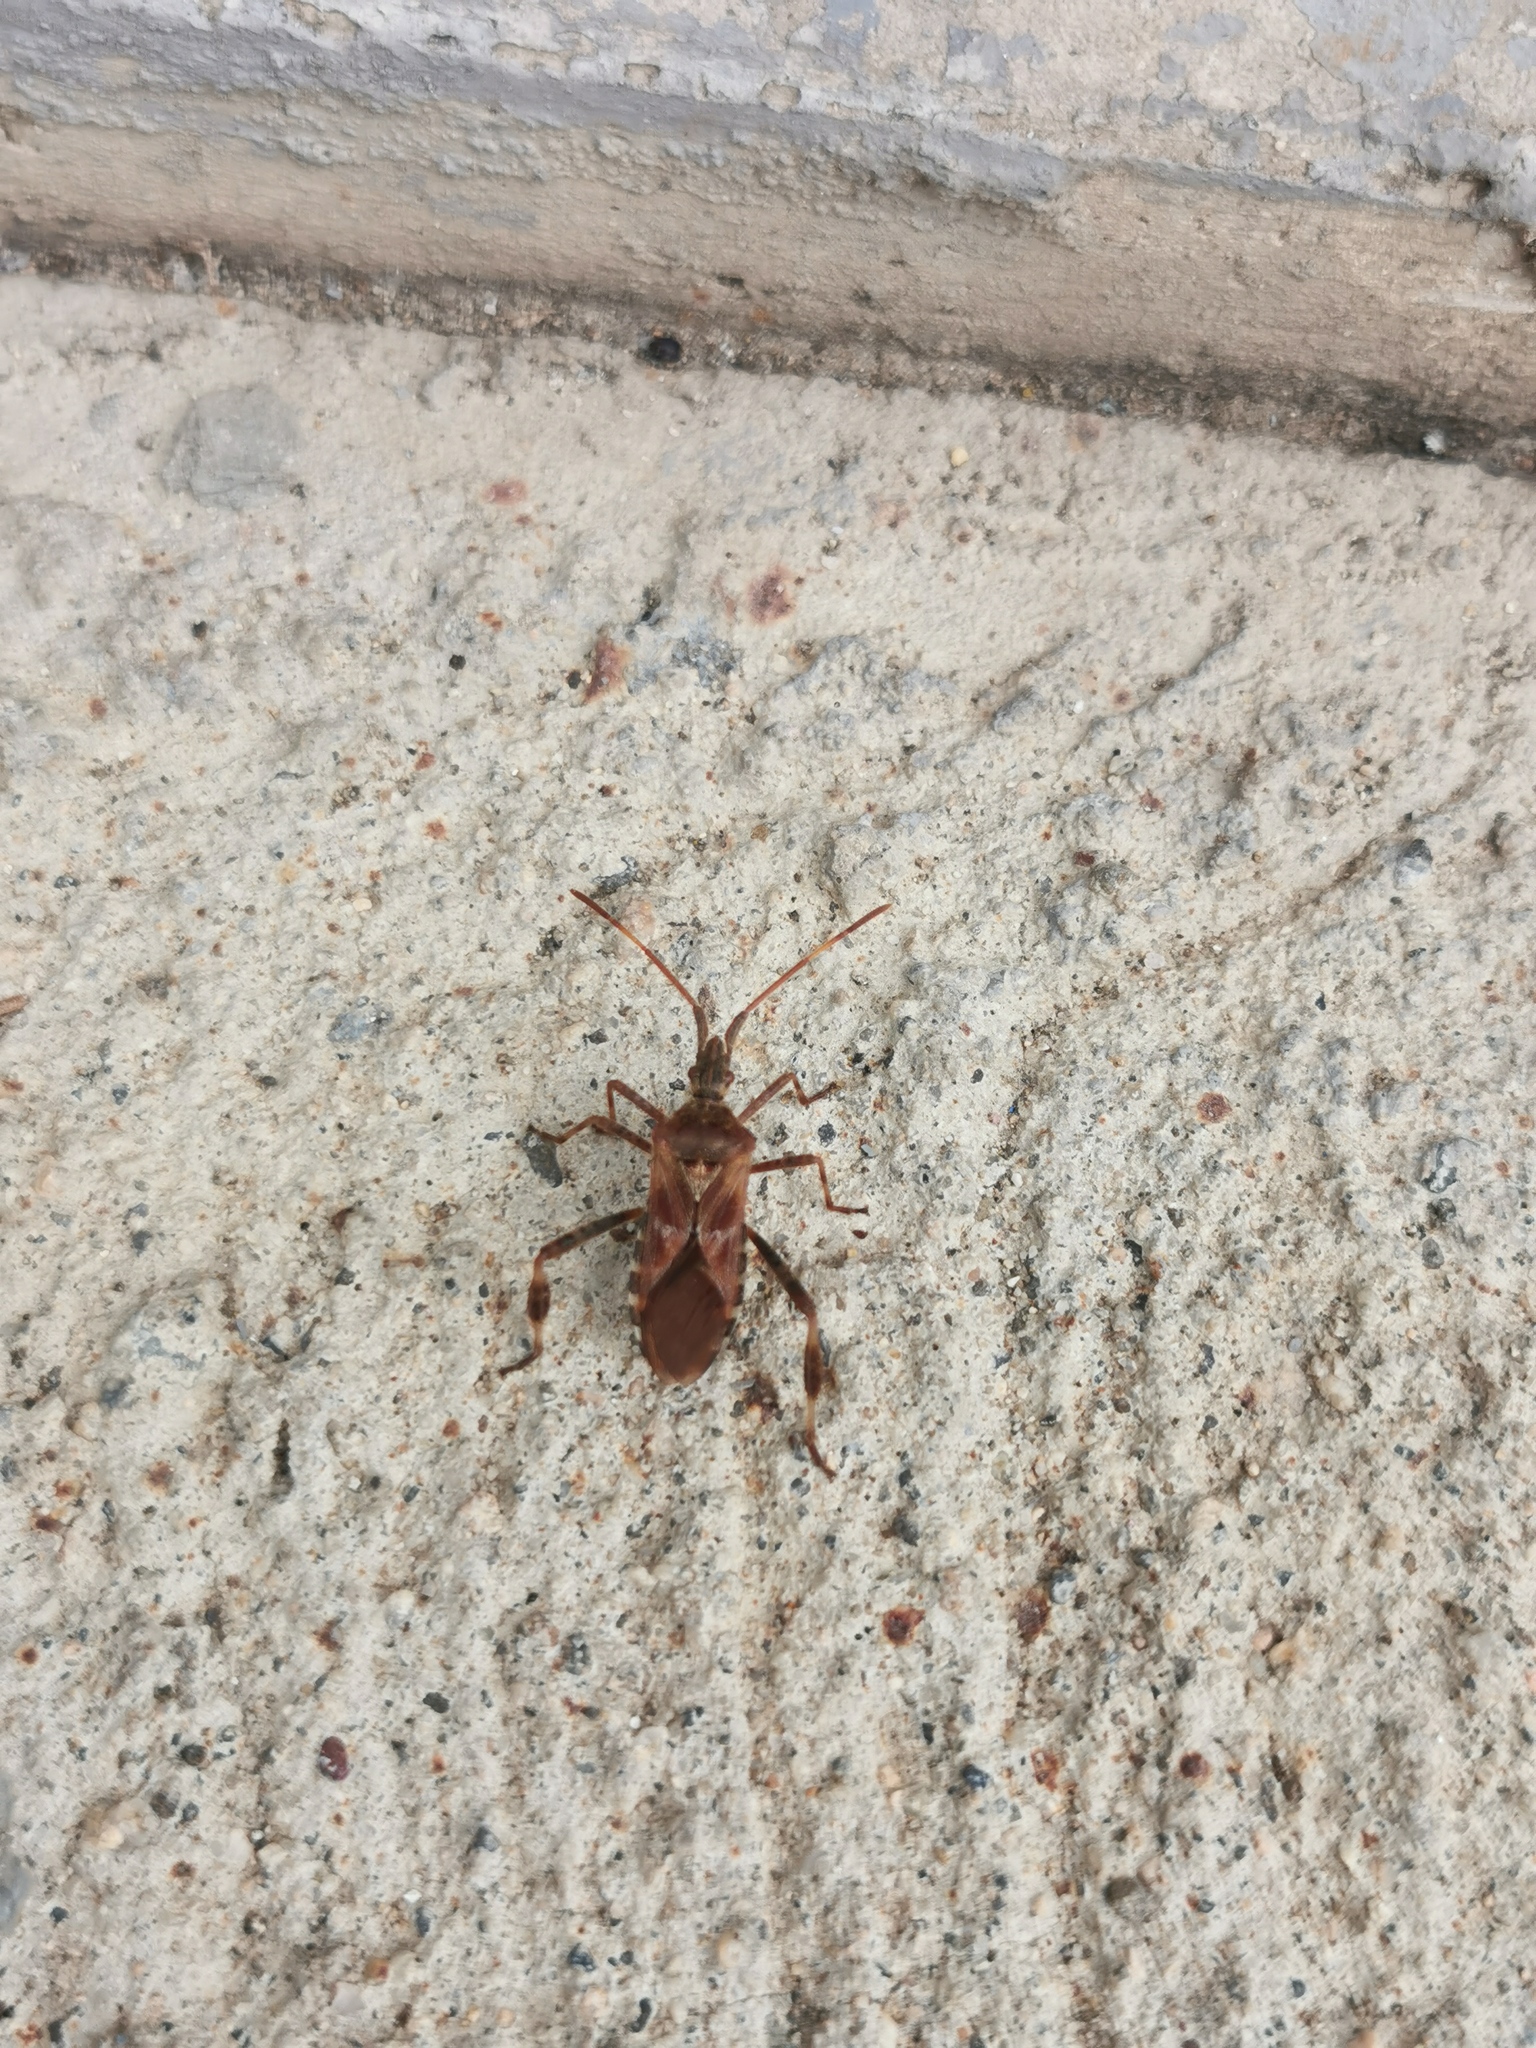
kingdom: Animalia
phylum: Arthropoda
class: Insecta
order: Hemiptera
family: Coreidae
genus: Leptoglossus
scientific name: Leptoglossus occidentalis
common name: Western conifer-seed bug
